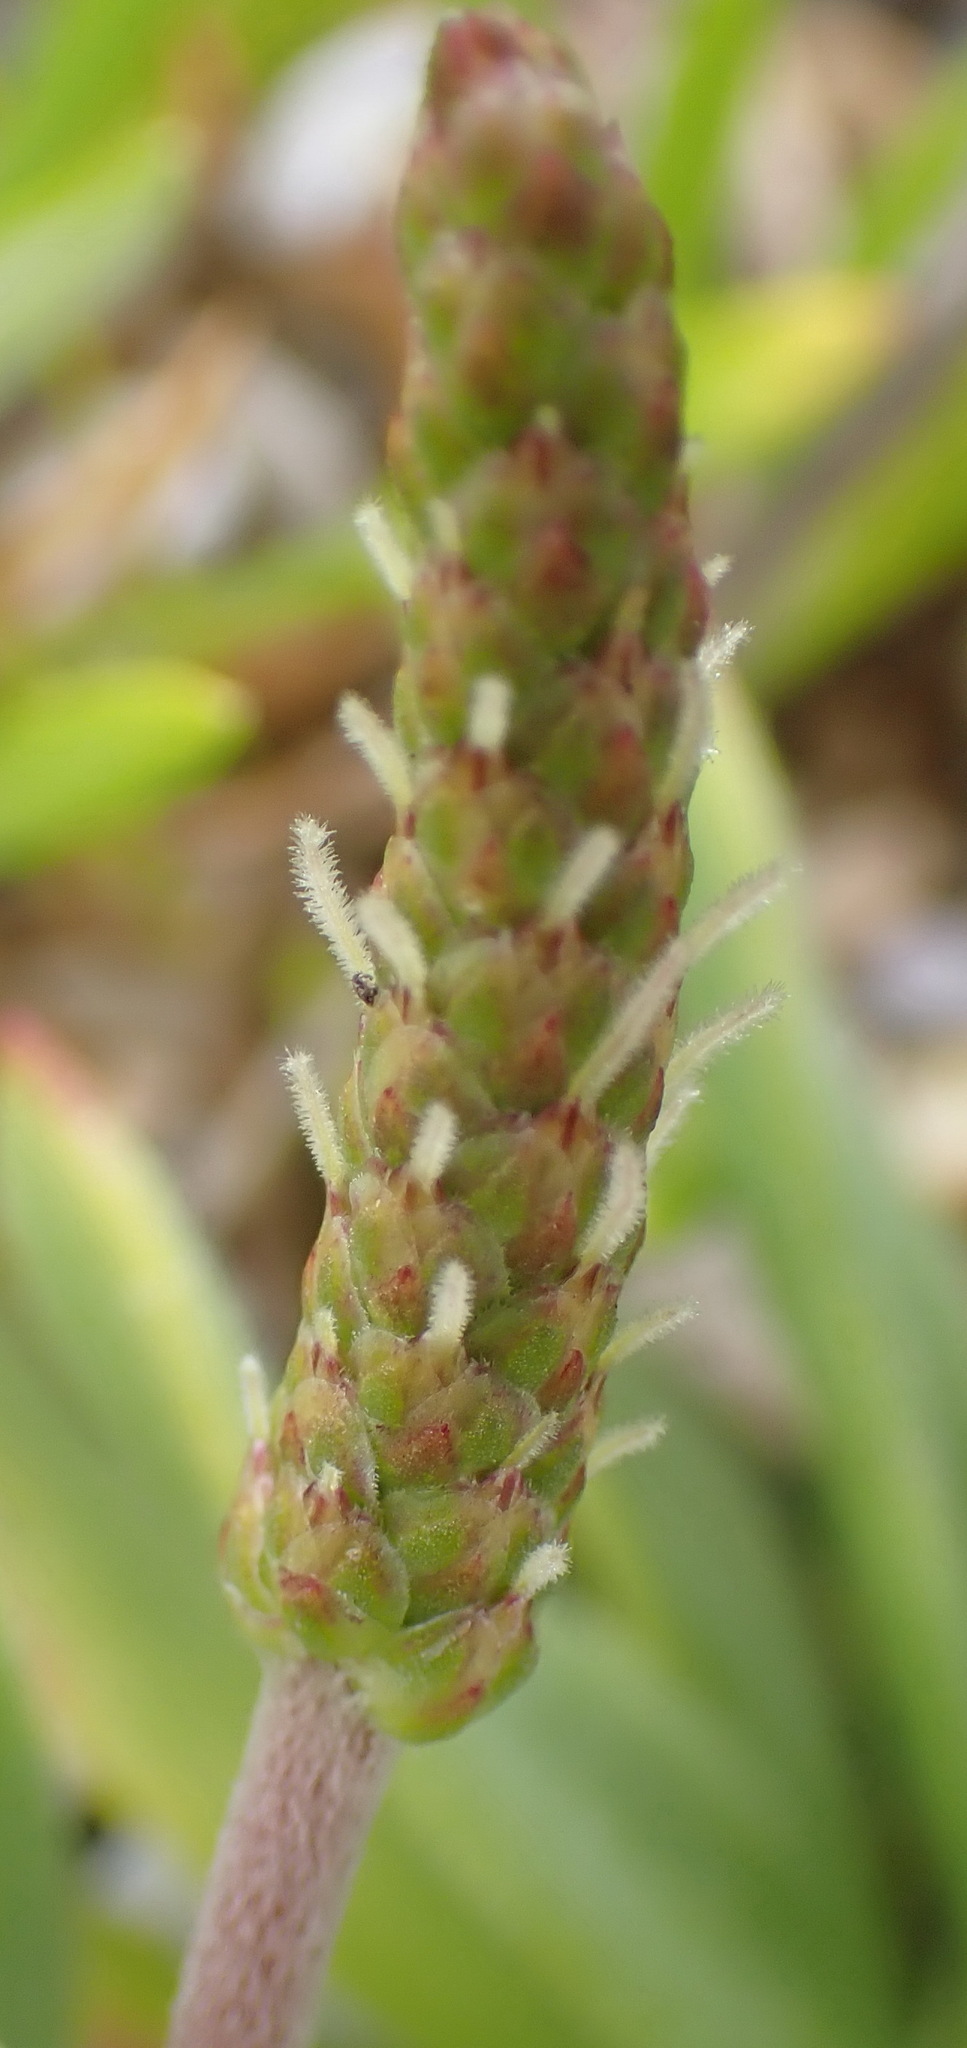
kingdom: Plantae
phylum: Tracheophyta
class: Magnoliopsida
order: Lamiales
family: Plantaginaceae
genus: Plantago
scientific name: Plantago carnosa
